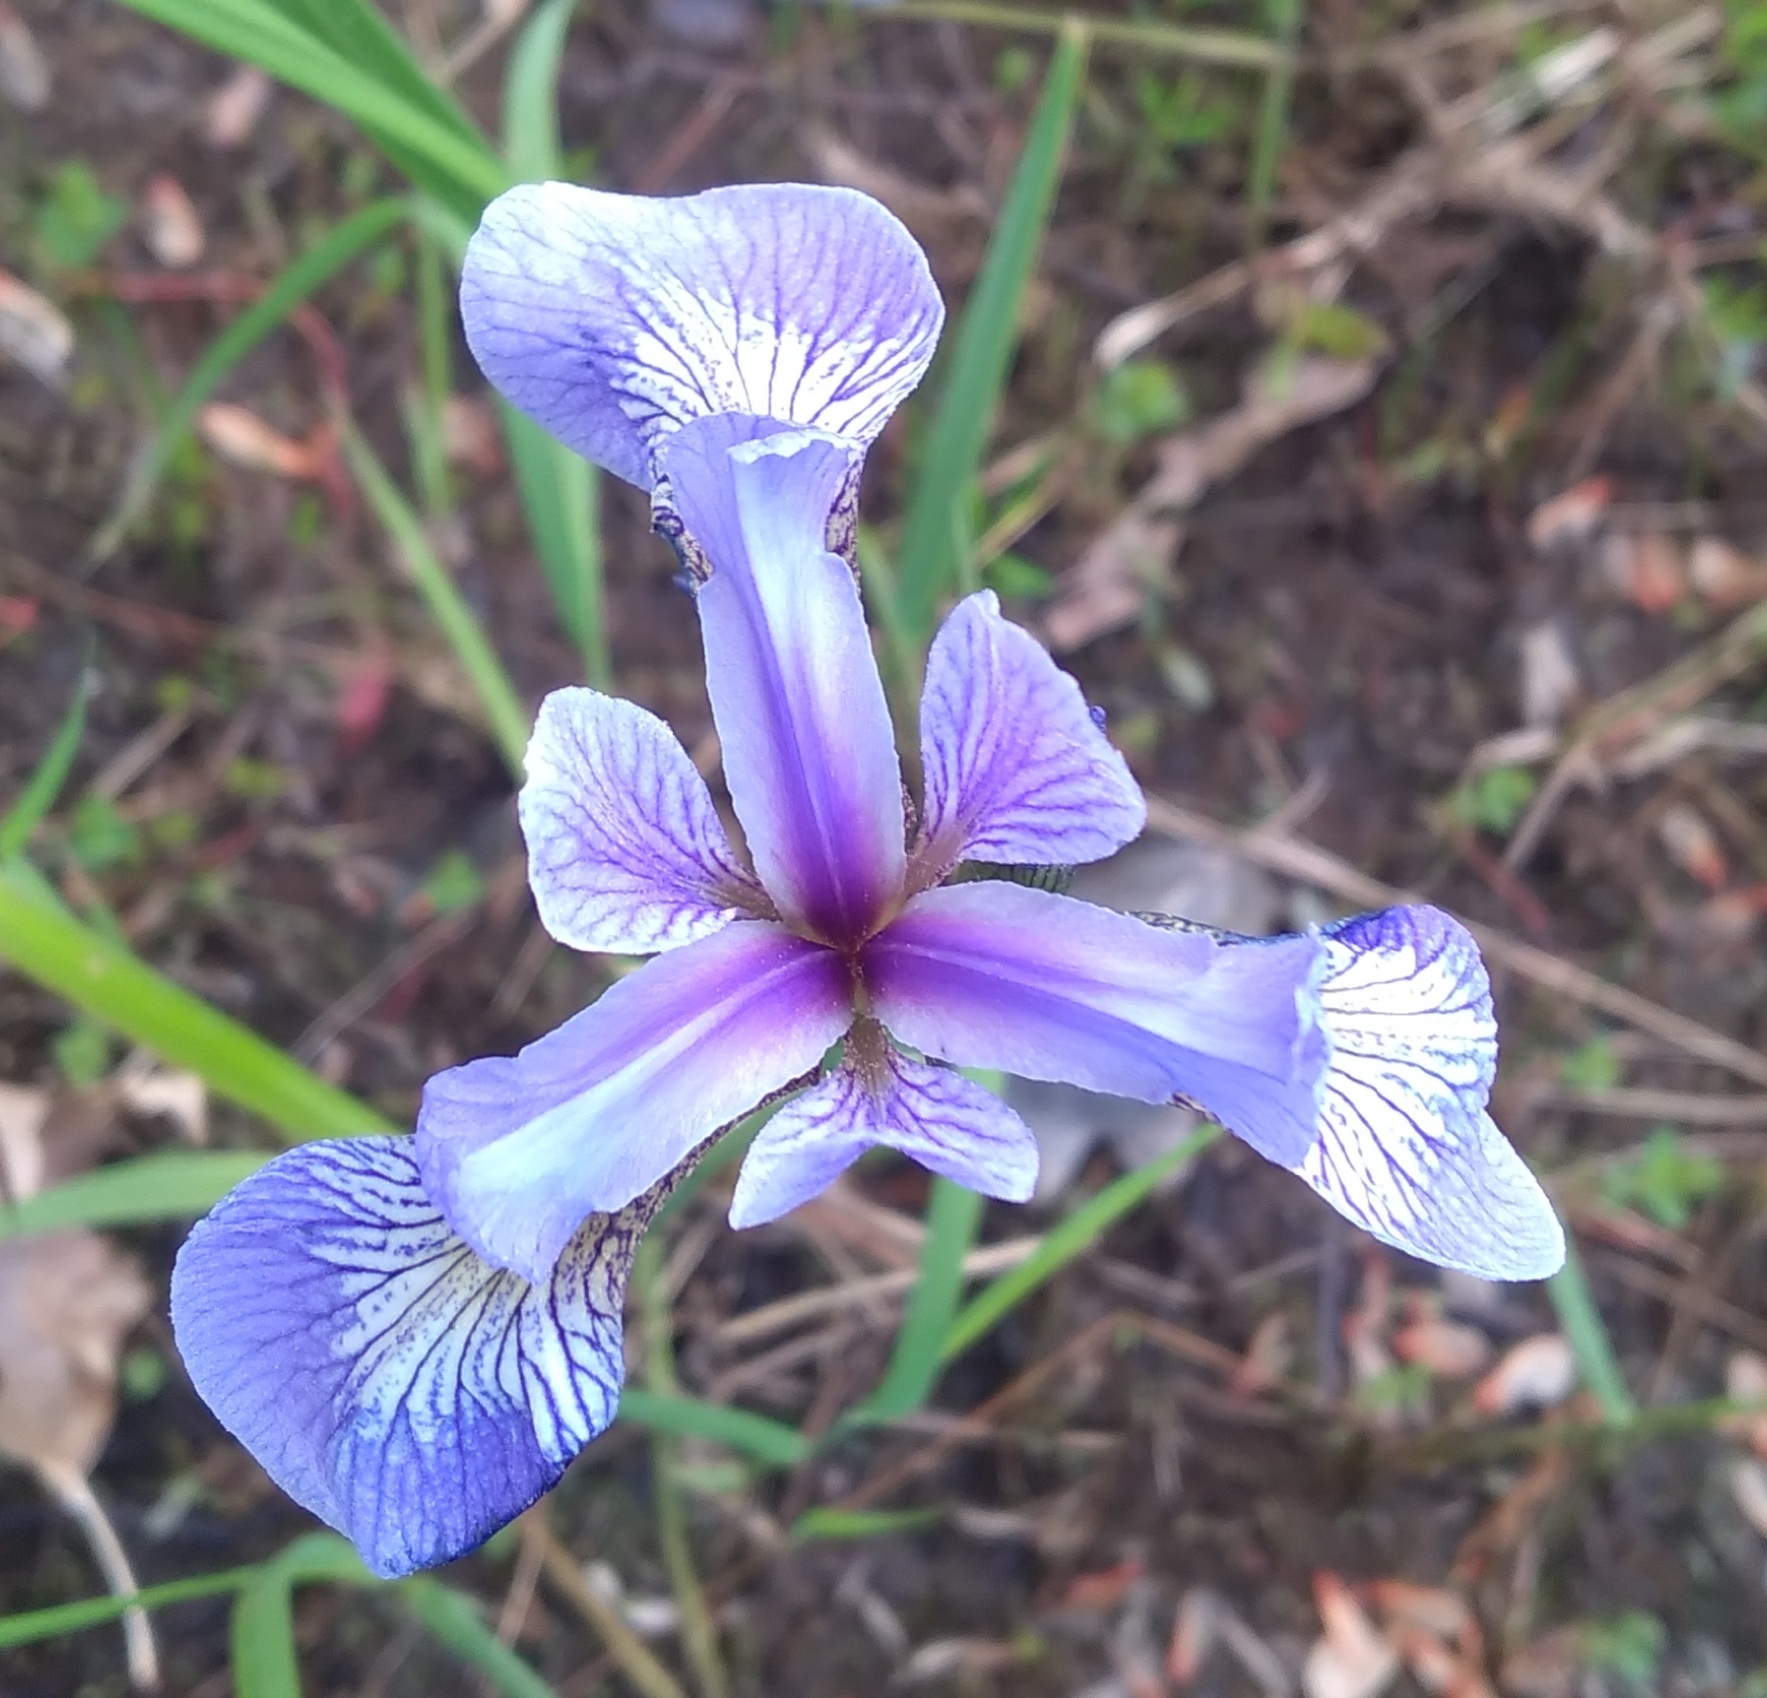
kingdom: Plantae
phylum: Tracheophyta
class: Liliopsida
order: Asparagales
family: Iridaceae
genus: Iris
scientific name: Iris versicolor
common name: Purple iris
